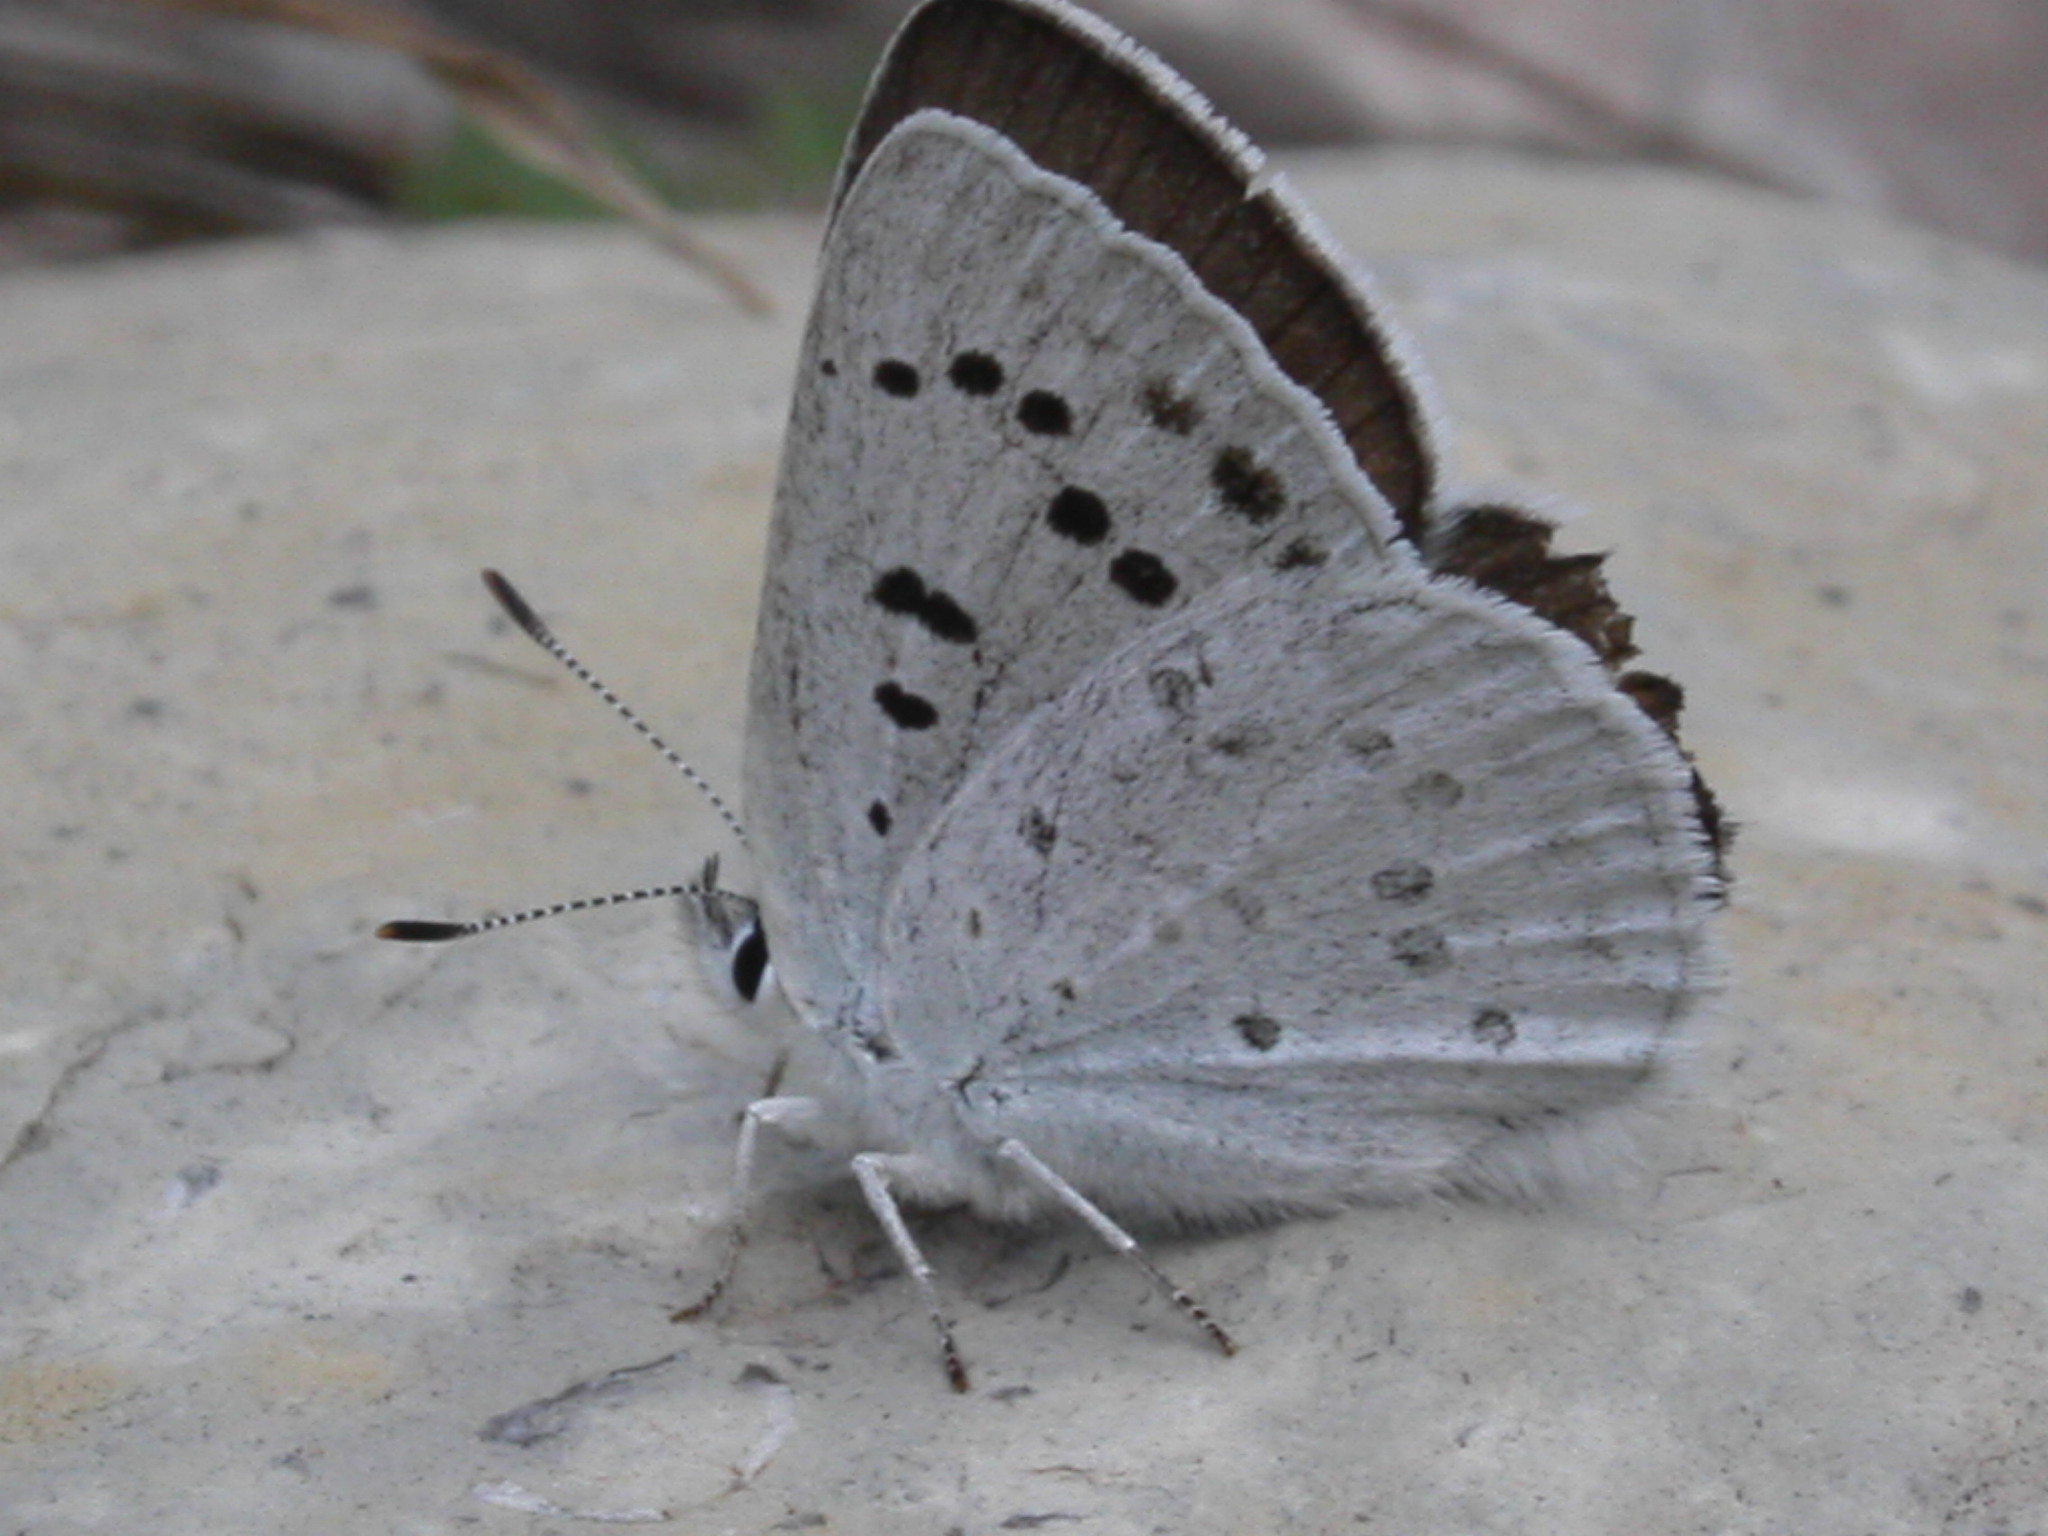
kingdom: Animalia
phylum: Arthropoda
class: Insecta
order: Lepidoptera
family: Lycaenidae
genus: Tharsalea
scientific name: Tharsalea heteronea
